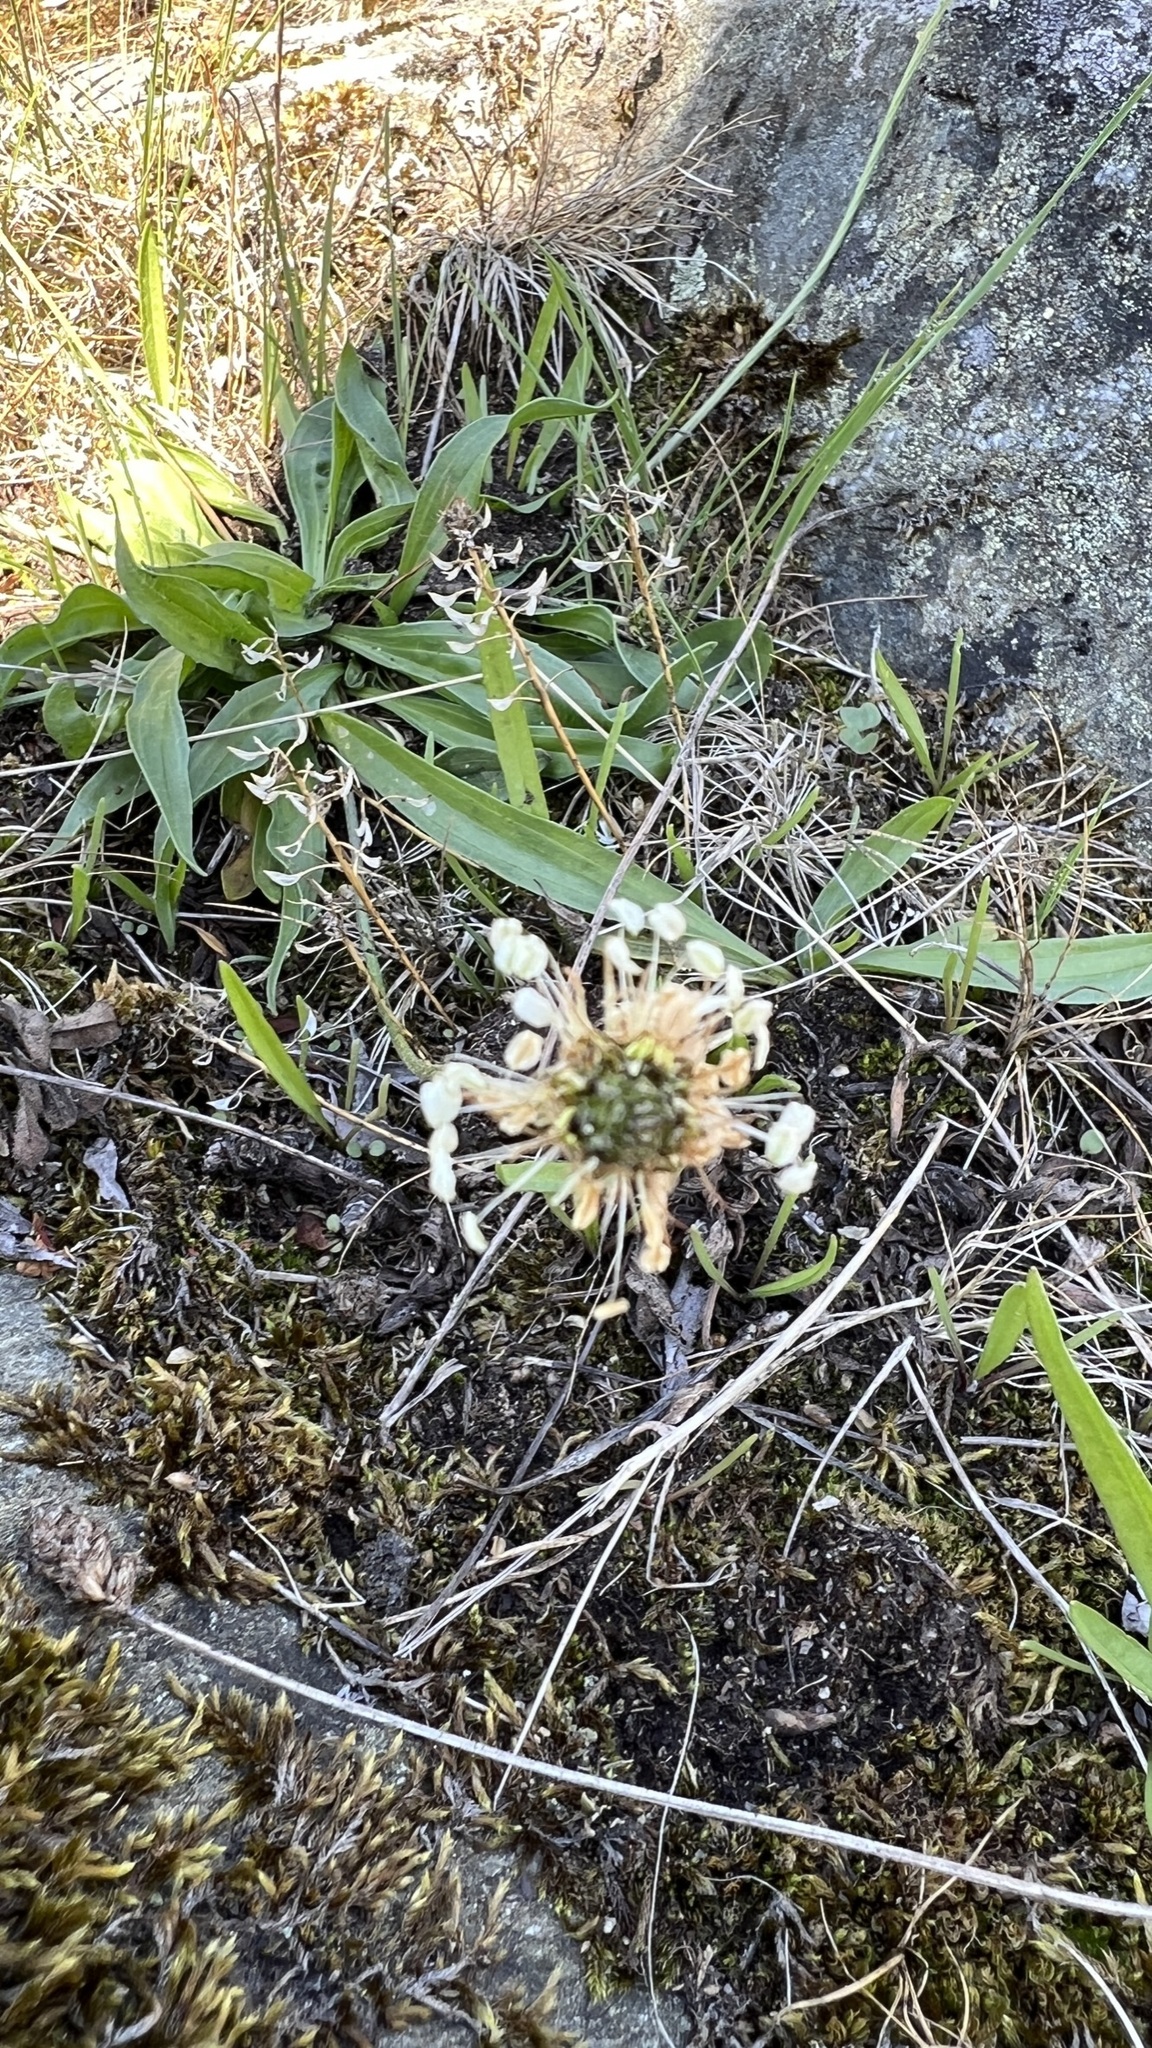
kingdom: Plantae
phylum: Tracheophyta
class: Magnoliopsida
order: Lamiales
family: Plantaginaceae
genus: Plantago
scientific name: Plantago lanceolata
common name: Ribwort plantain
